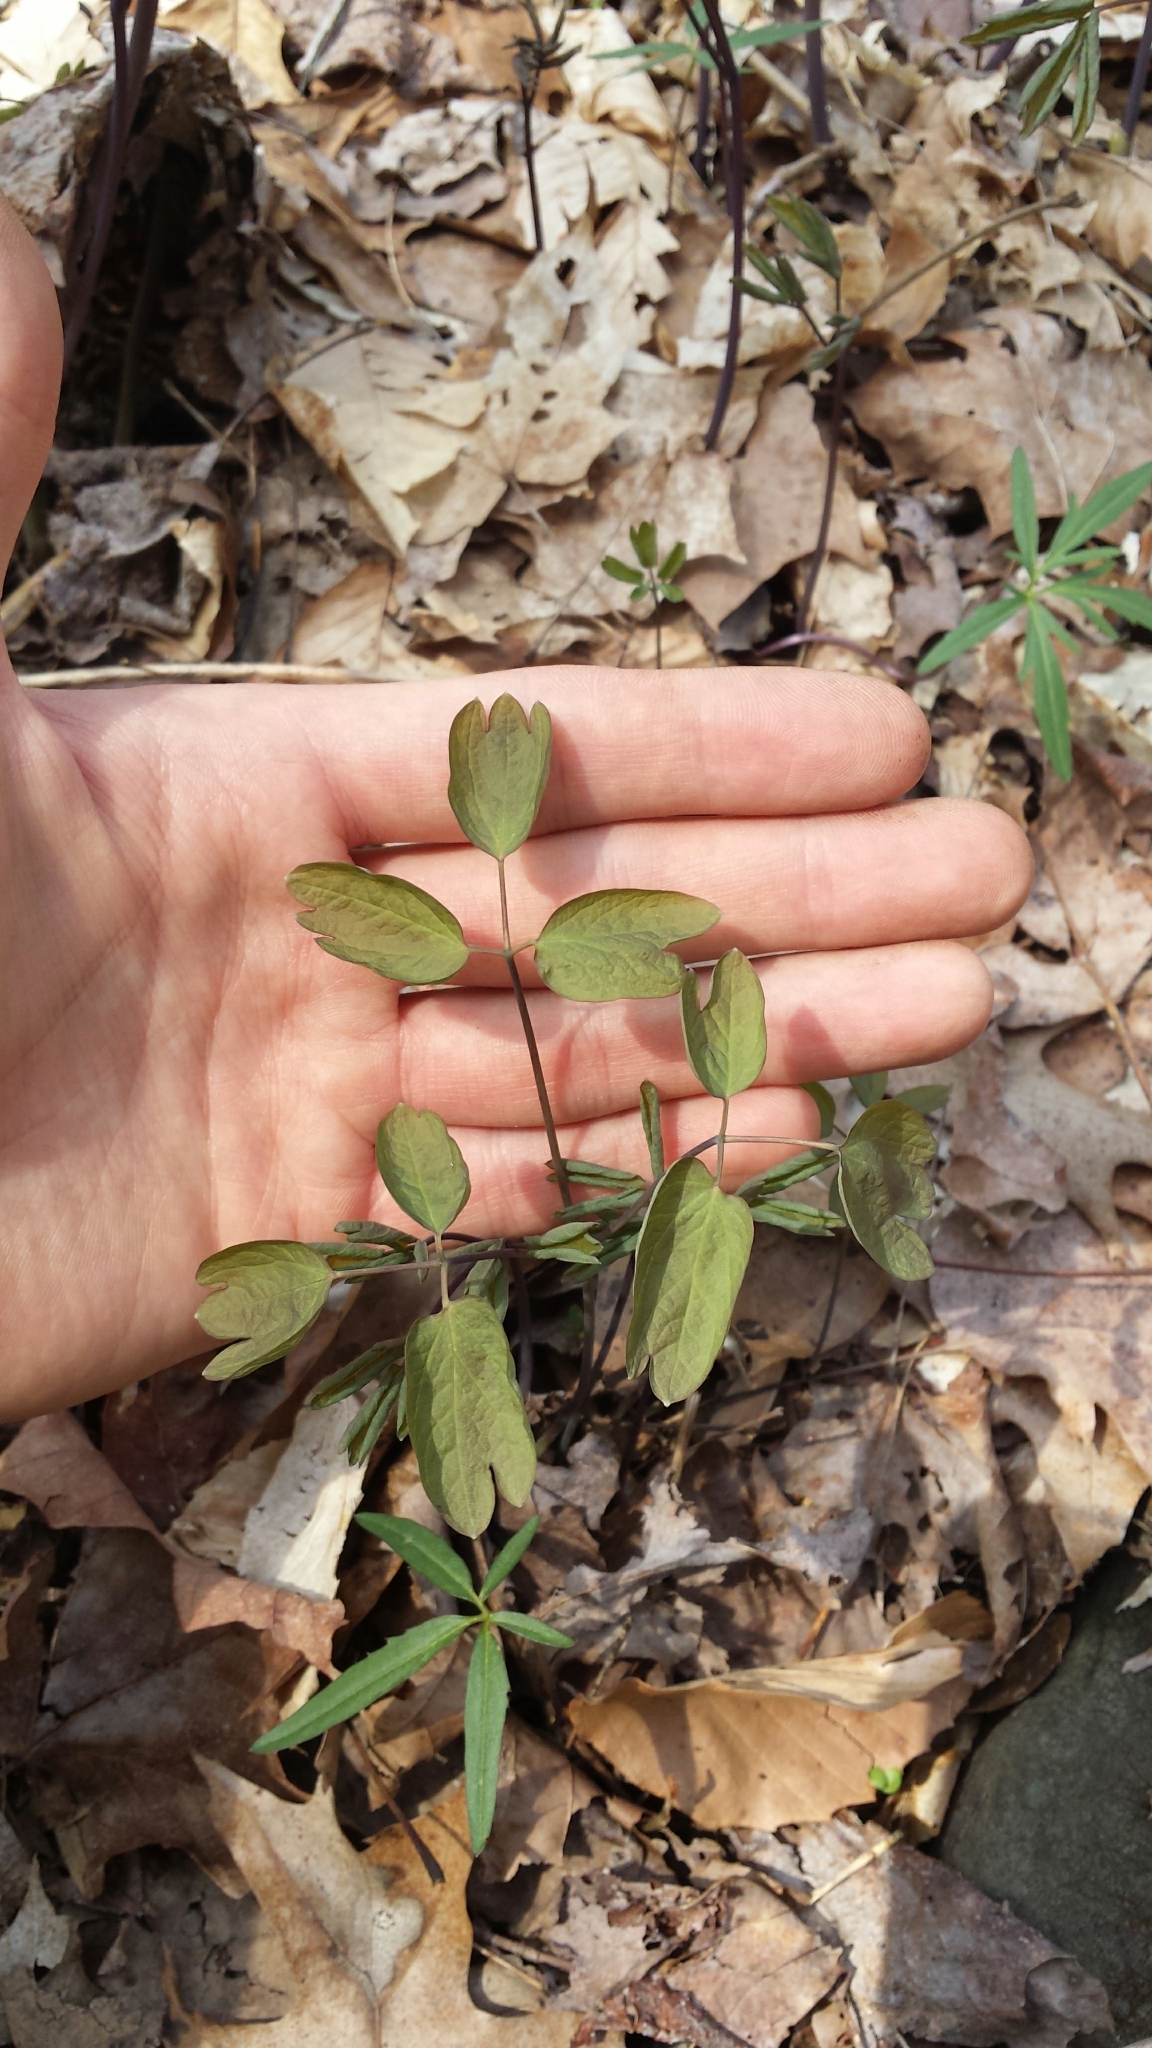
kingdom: Plantae
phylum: Tracheophyta
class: Magnoliopsida
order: Ranunculales
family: Berberidaceae
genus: Caulophyllum
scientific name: Caulophyllum giganteum
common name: Blue cohosh
